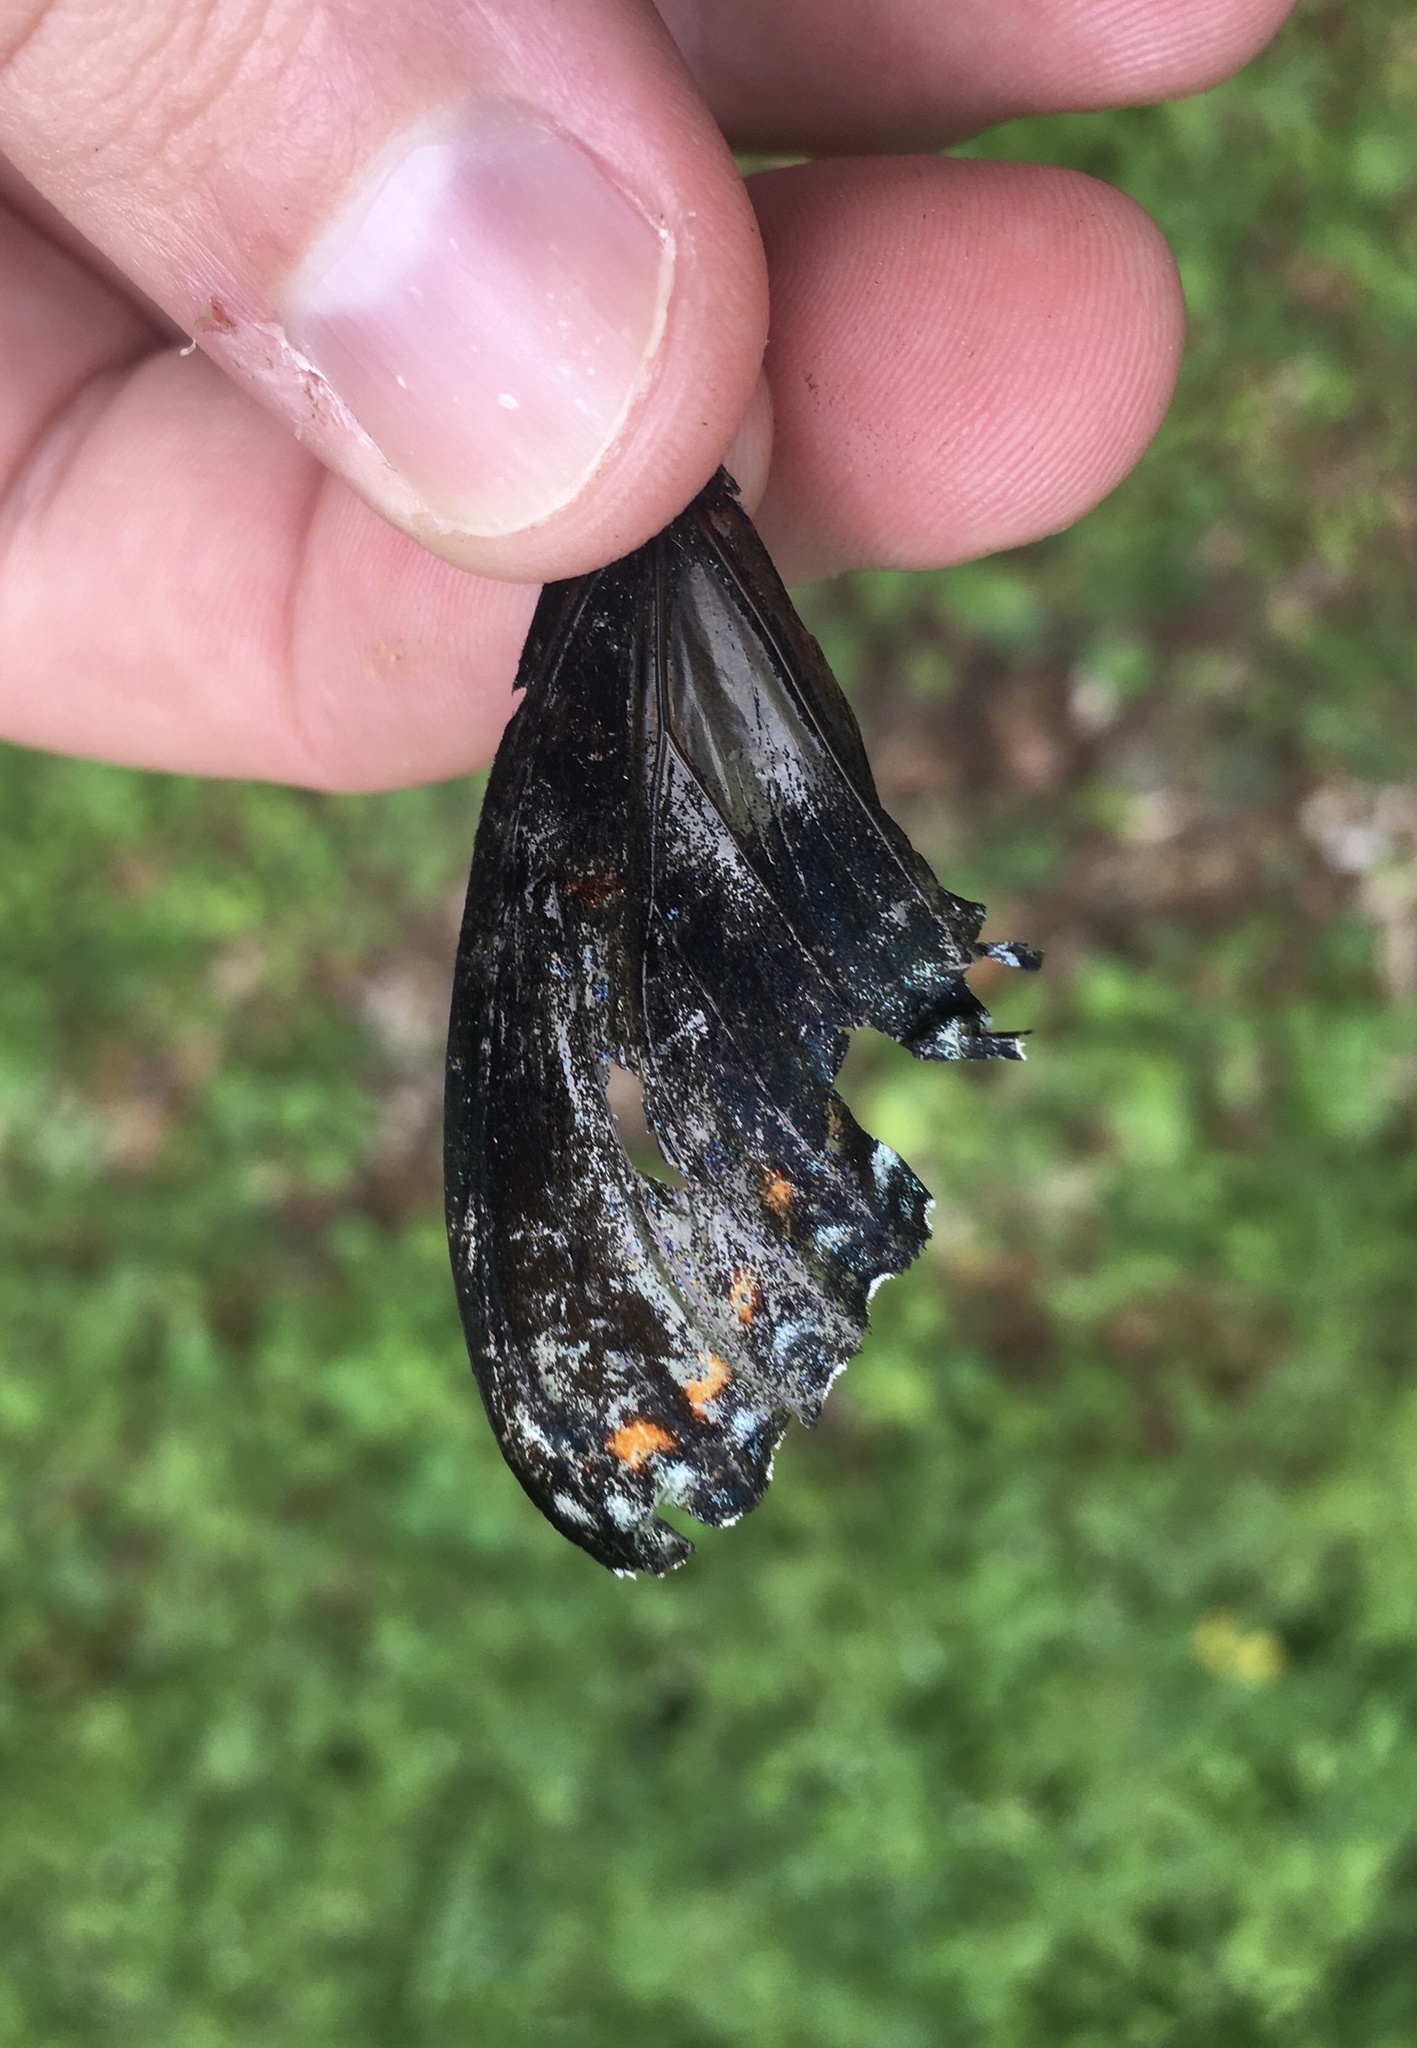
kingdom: Animalia
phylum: Arthropoda
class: Insecta
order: Lepidoptera
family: Nymphalidae
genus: Limenitis
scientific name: Limenitis astyanax
